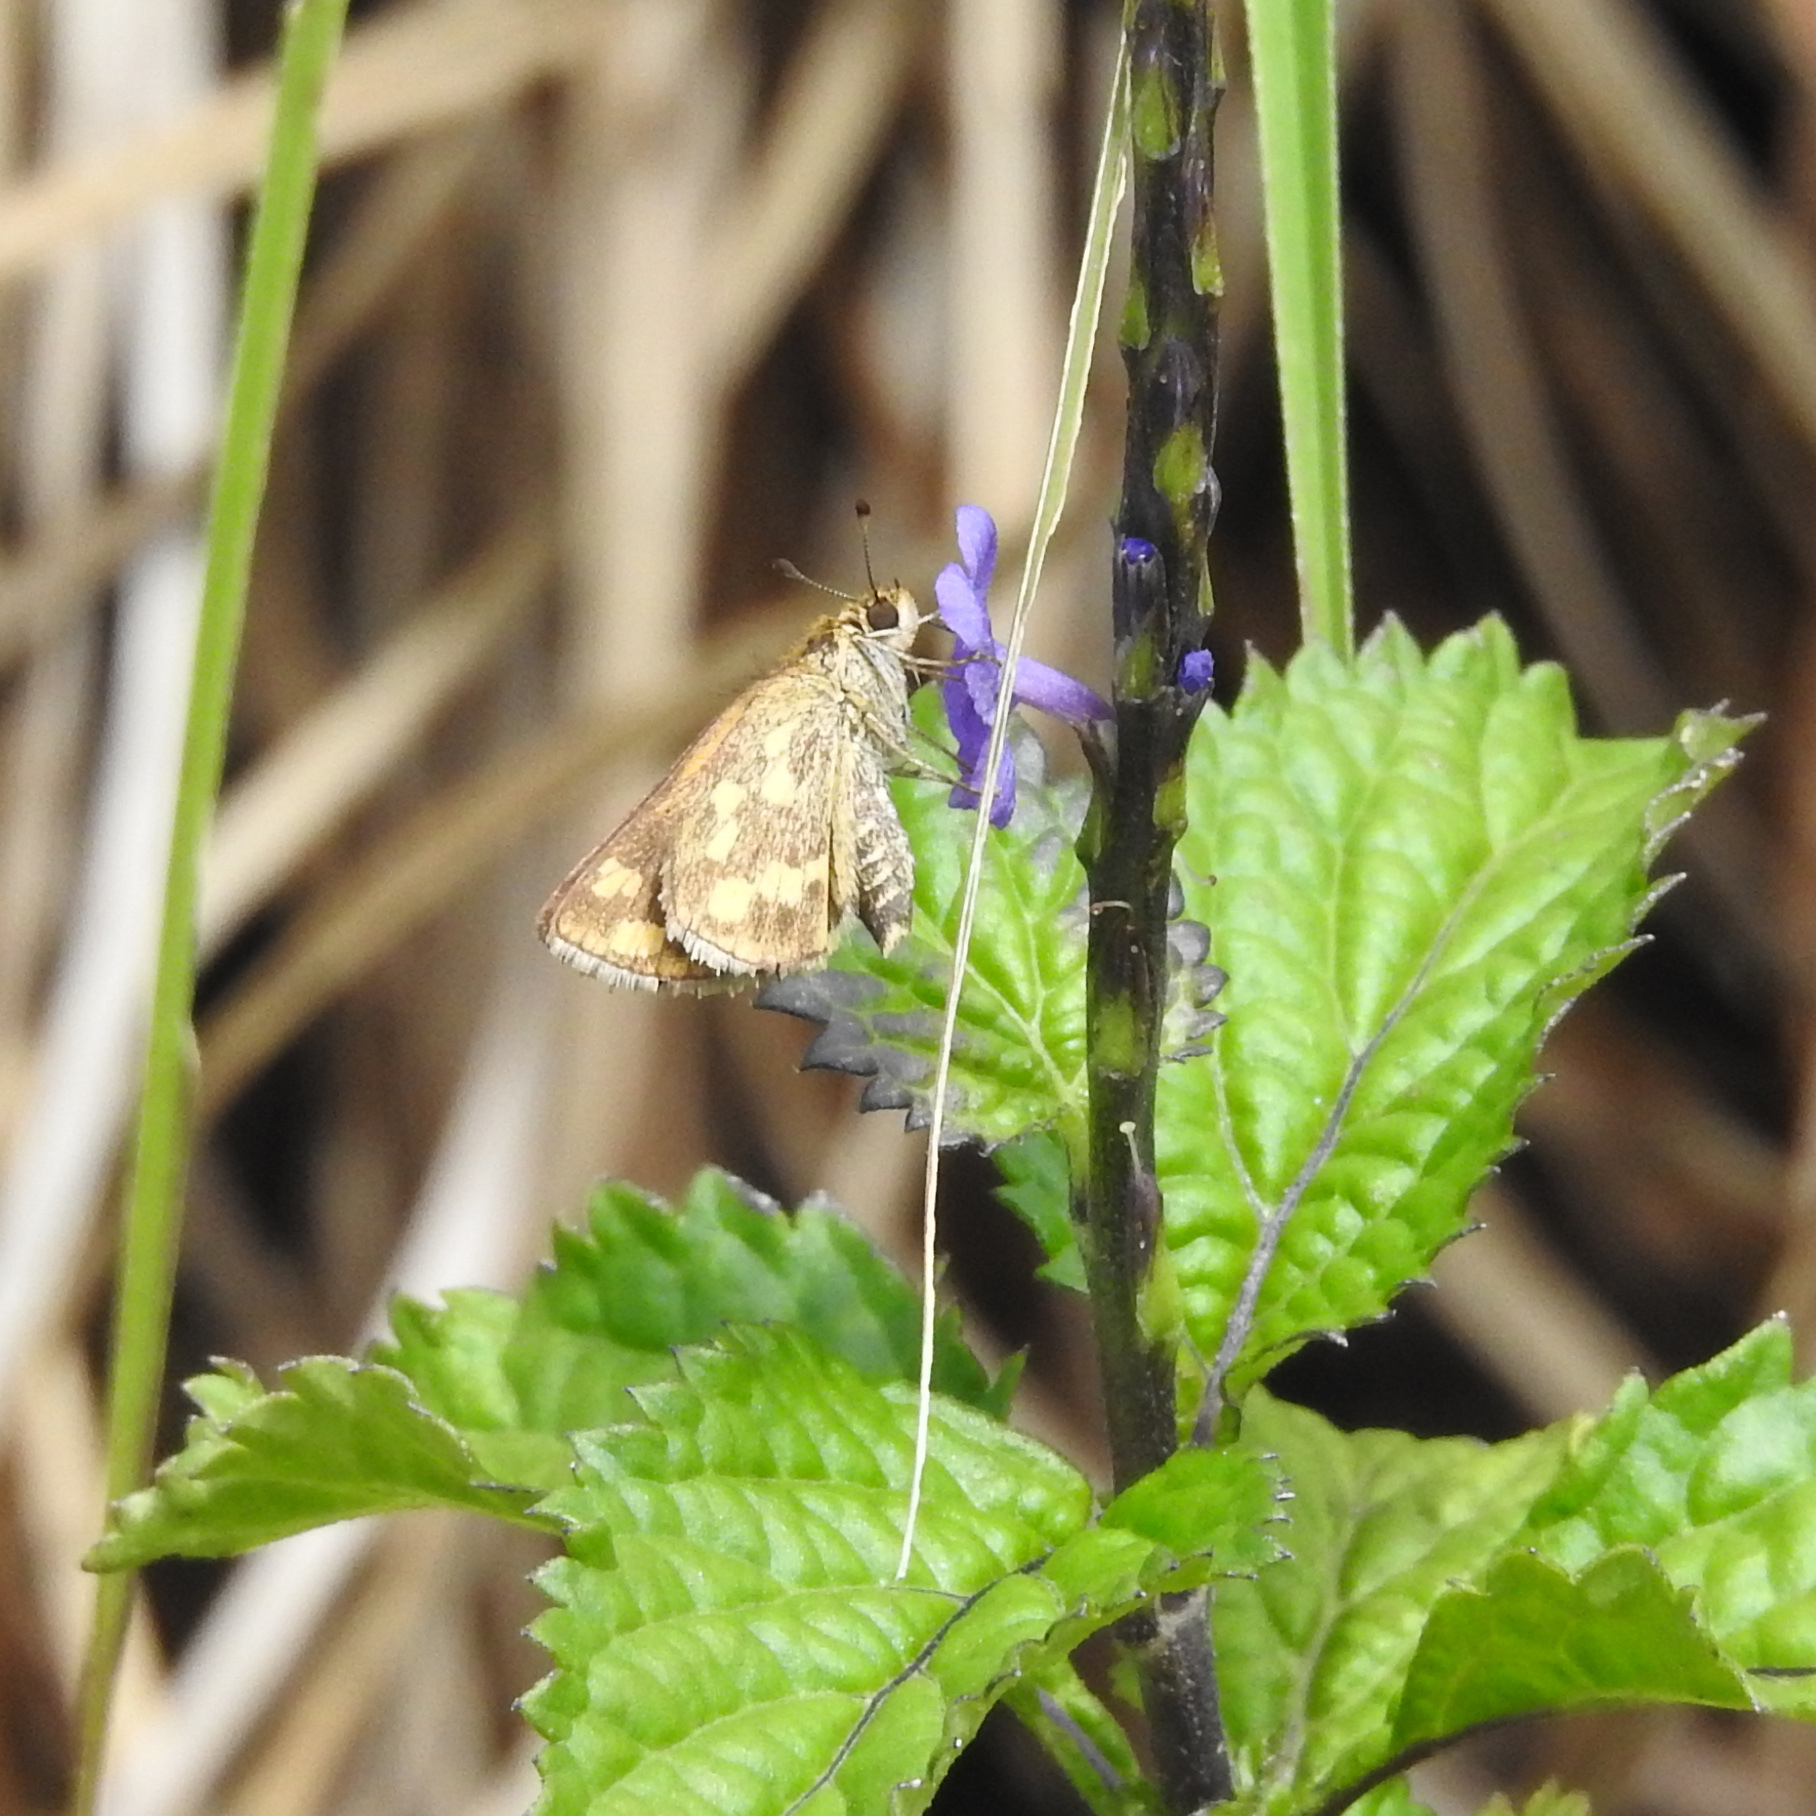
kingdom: Animalia
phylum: Arthropoda
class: Insecta
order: Lepidoptera
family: Hesperiidae
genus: Taractrocera
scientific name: Taractrocera ceramas
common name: Tamil grass dart
